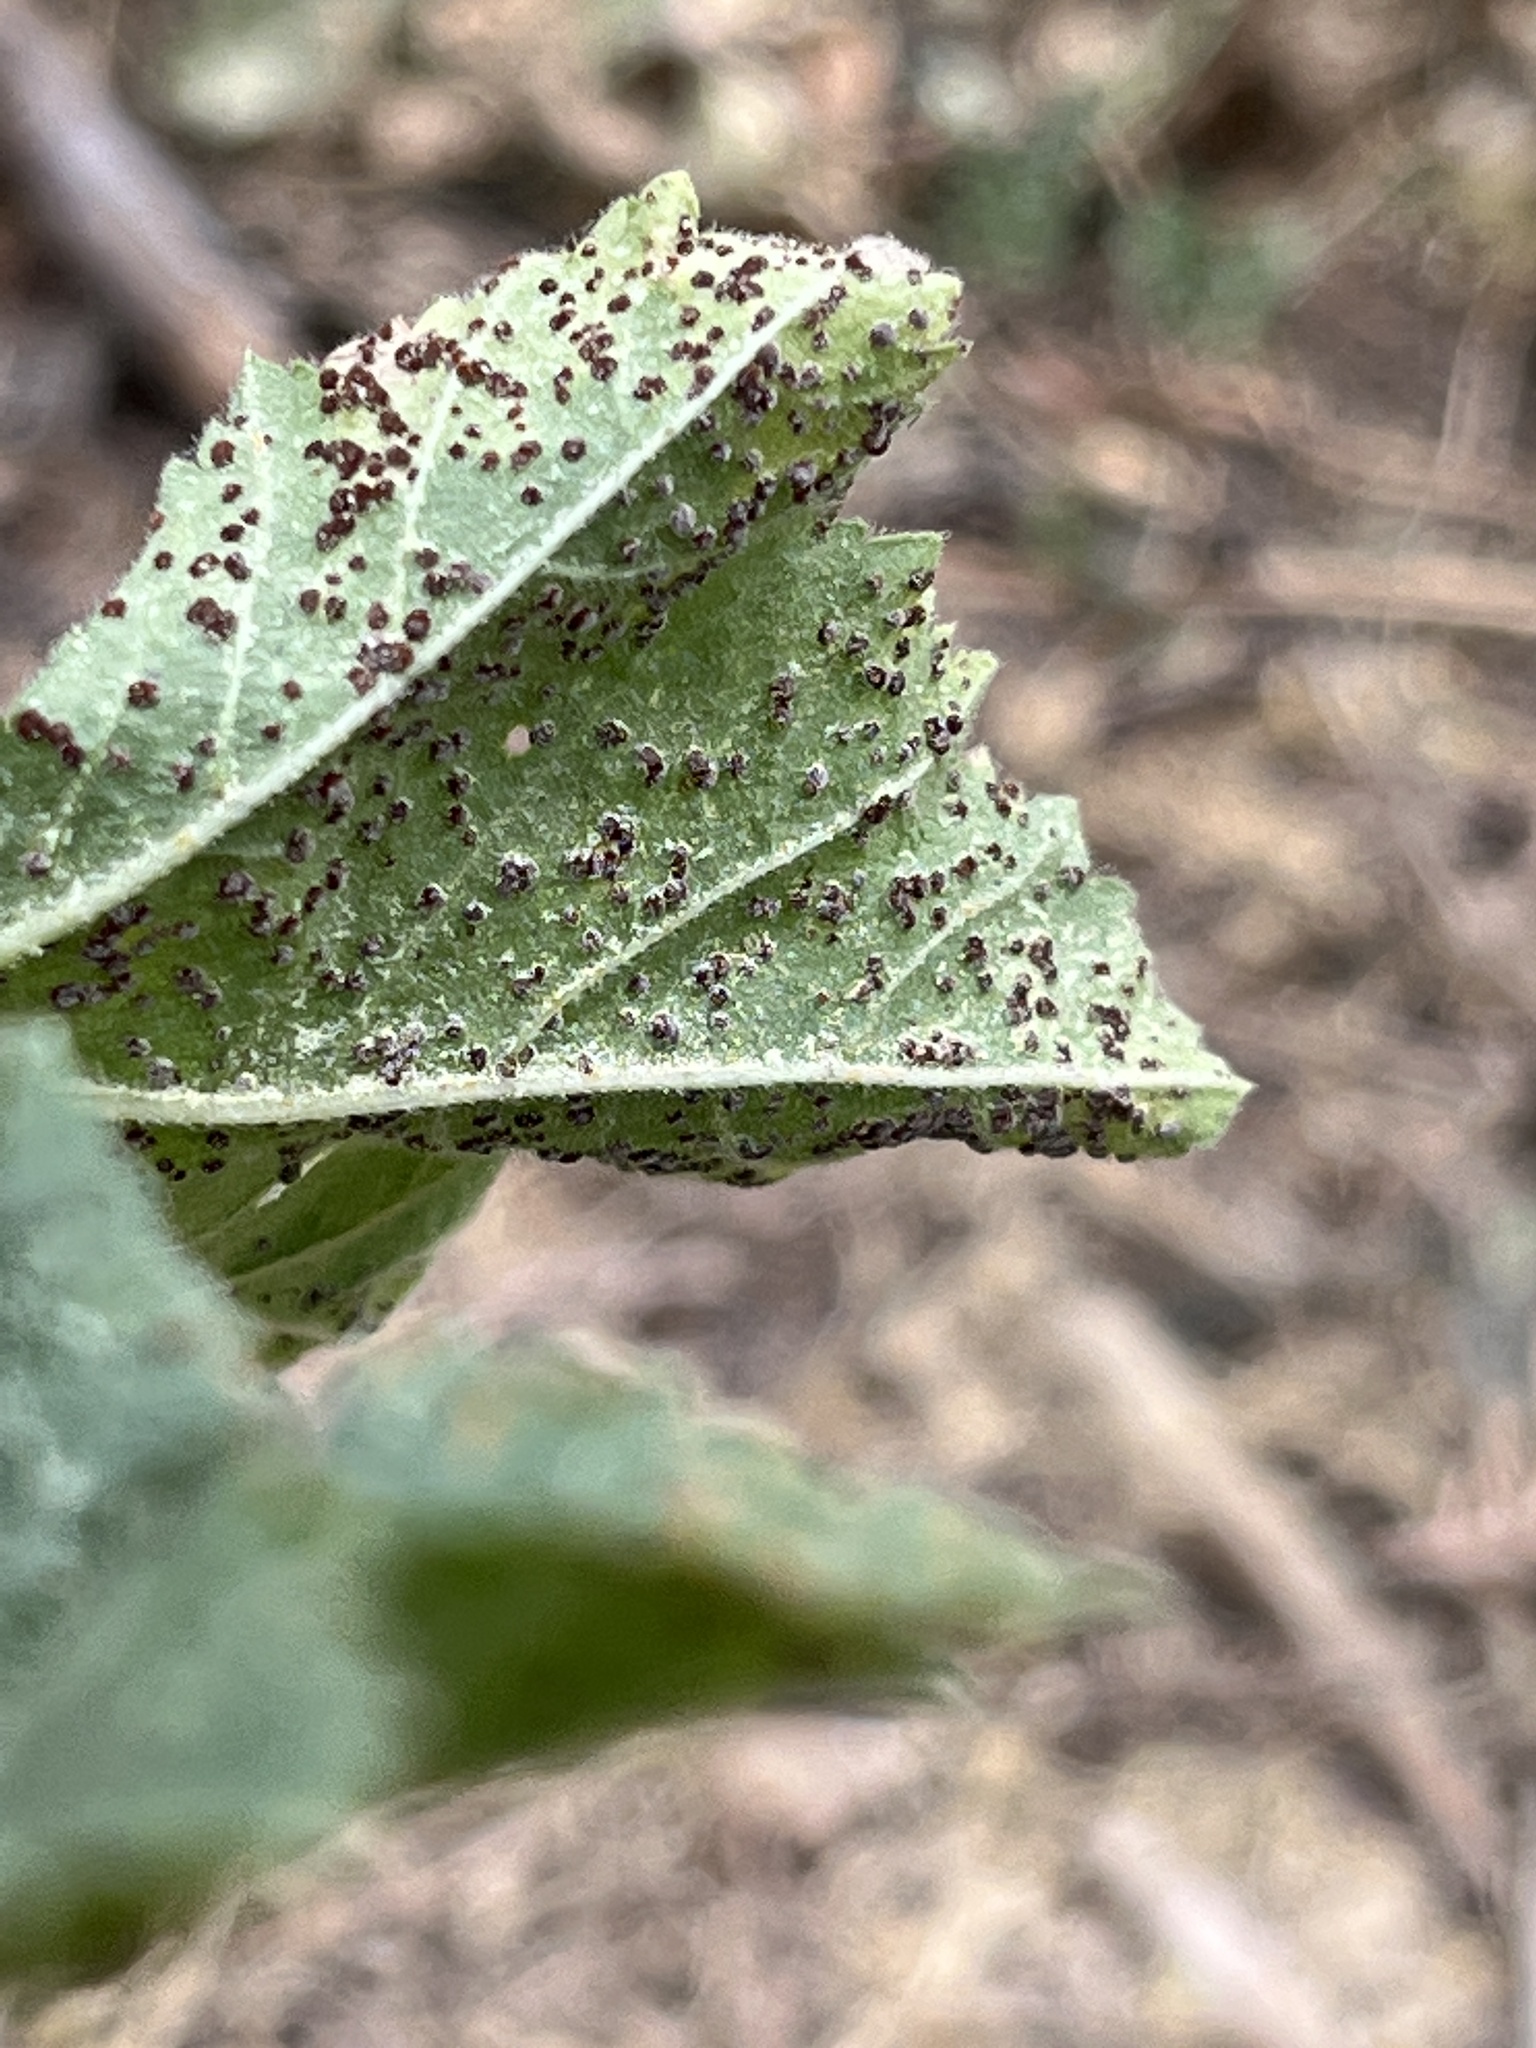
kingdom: Fungi
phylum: Basidiomycota
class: Pucciniomycetes
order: Pucciniales
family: Pucciniaceae
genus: Puccinia
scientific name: Puccinia malvacearum
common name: Hollyhock rust
